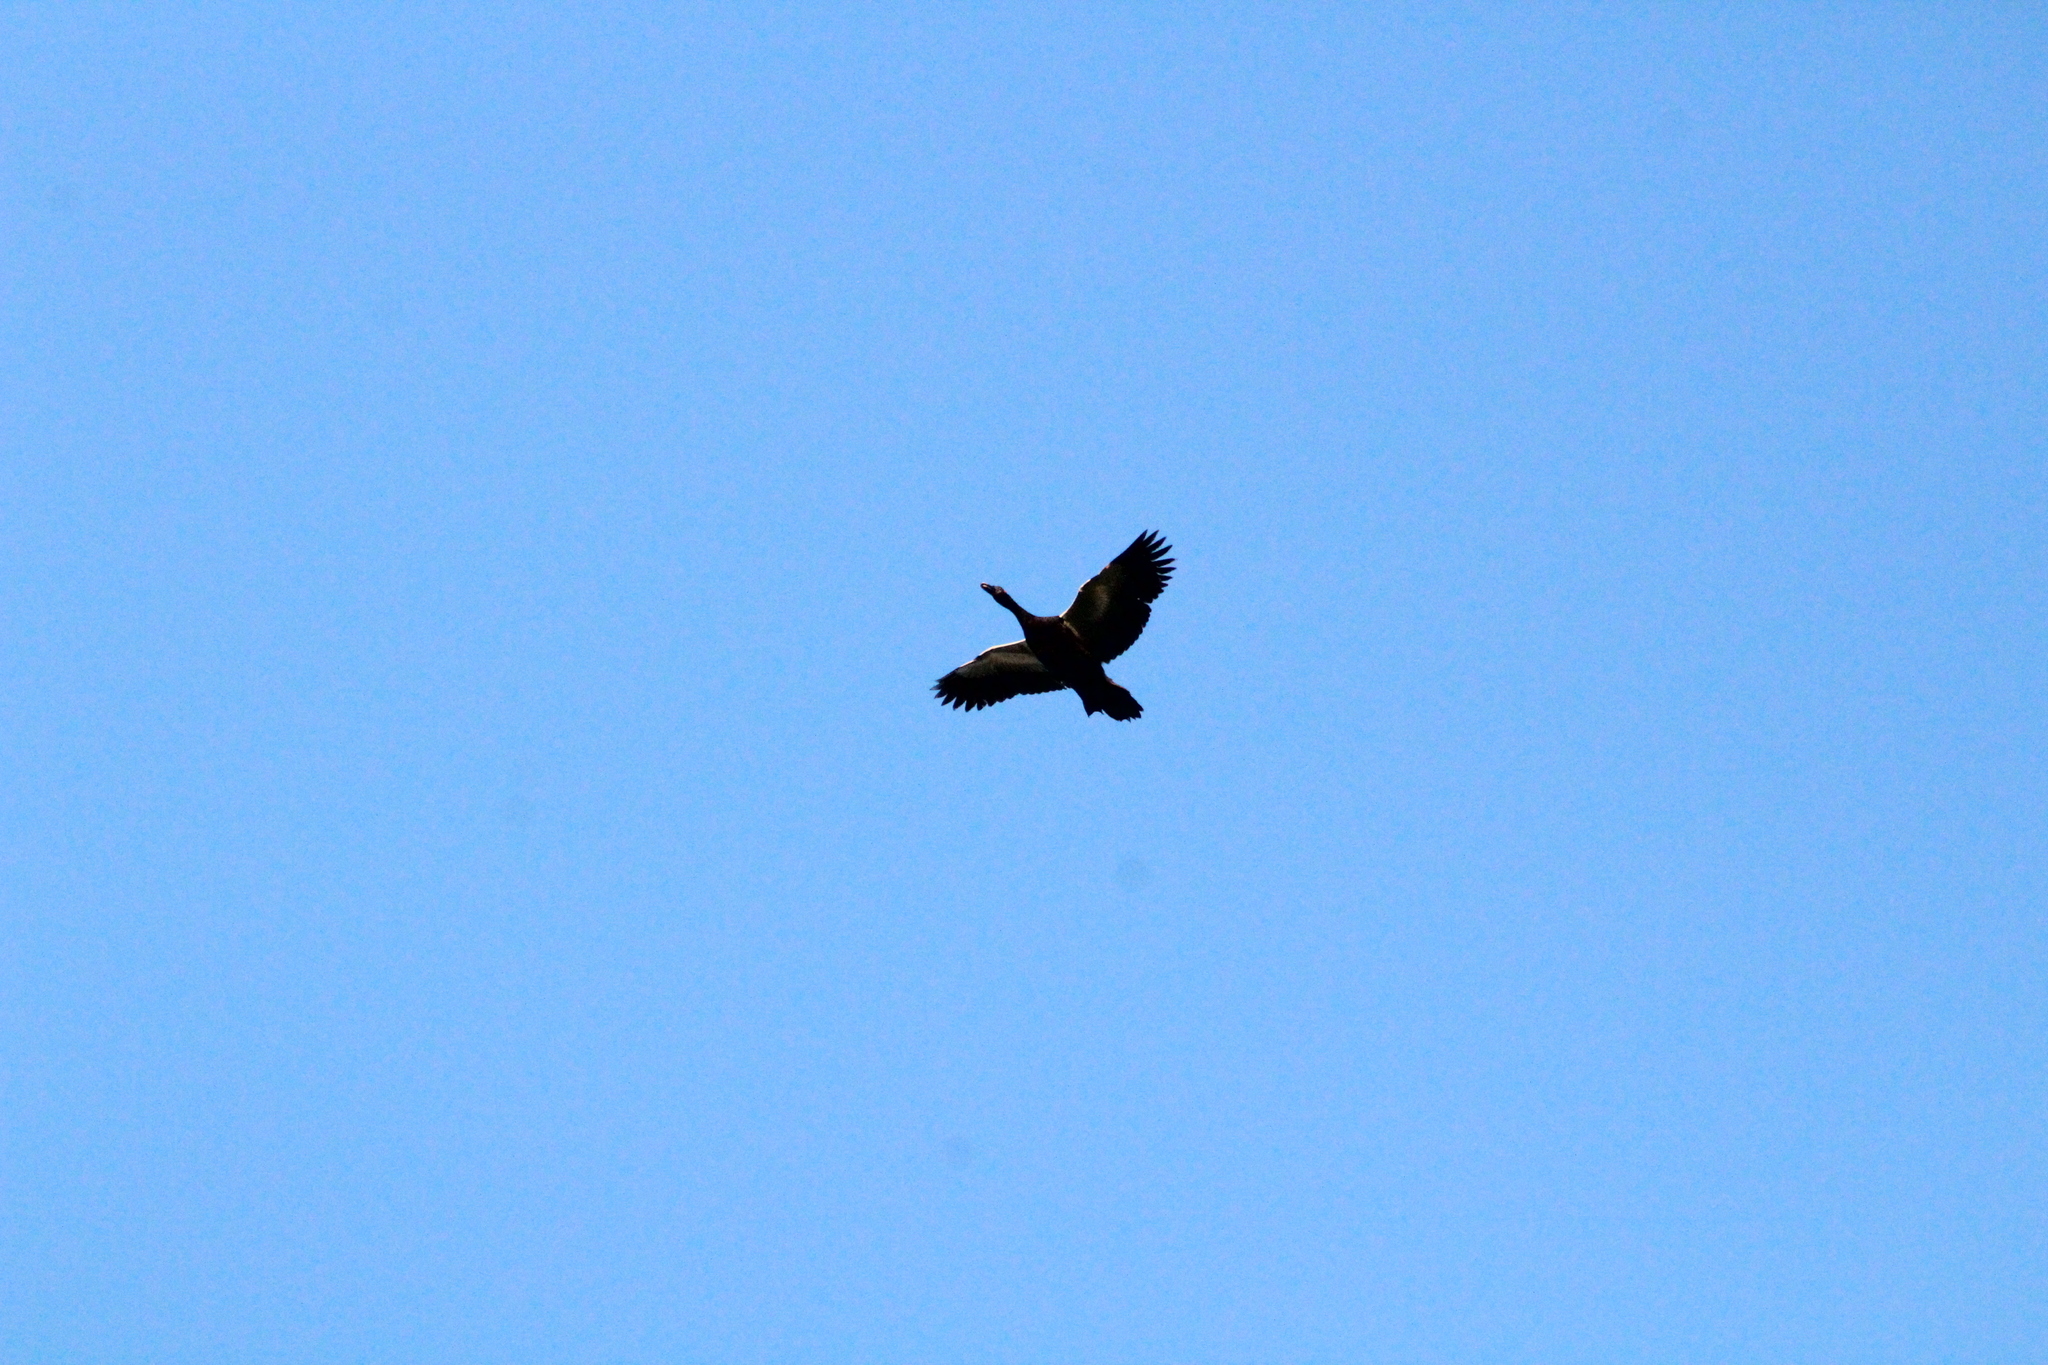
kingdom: Animalia
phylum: Chordata
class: Aves
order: Anseriformes
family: Anatidae
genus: Cairina
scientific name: Cairina moschata
